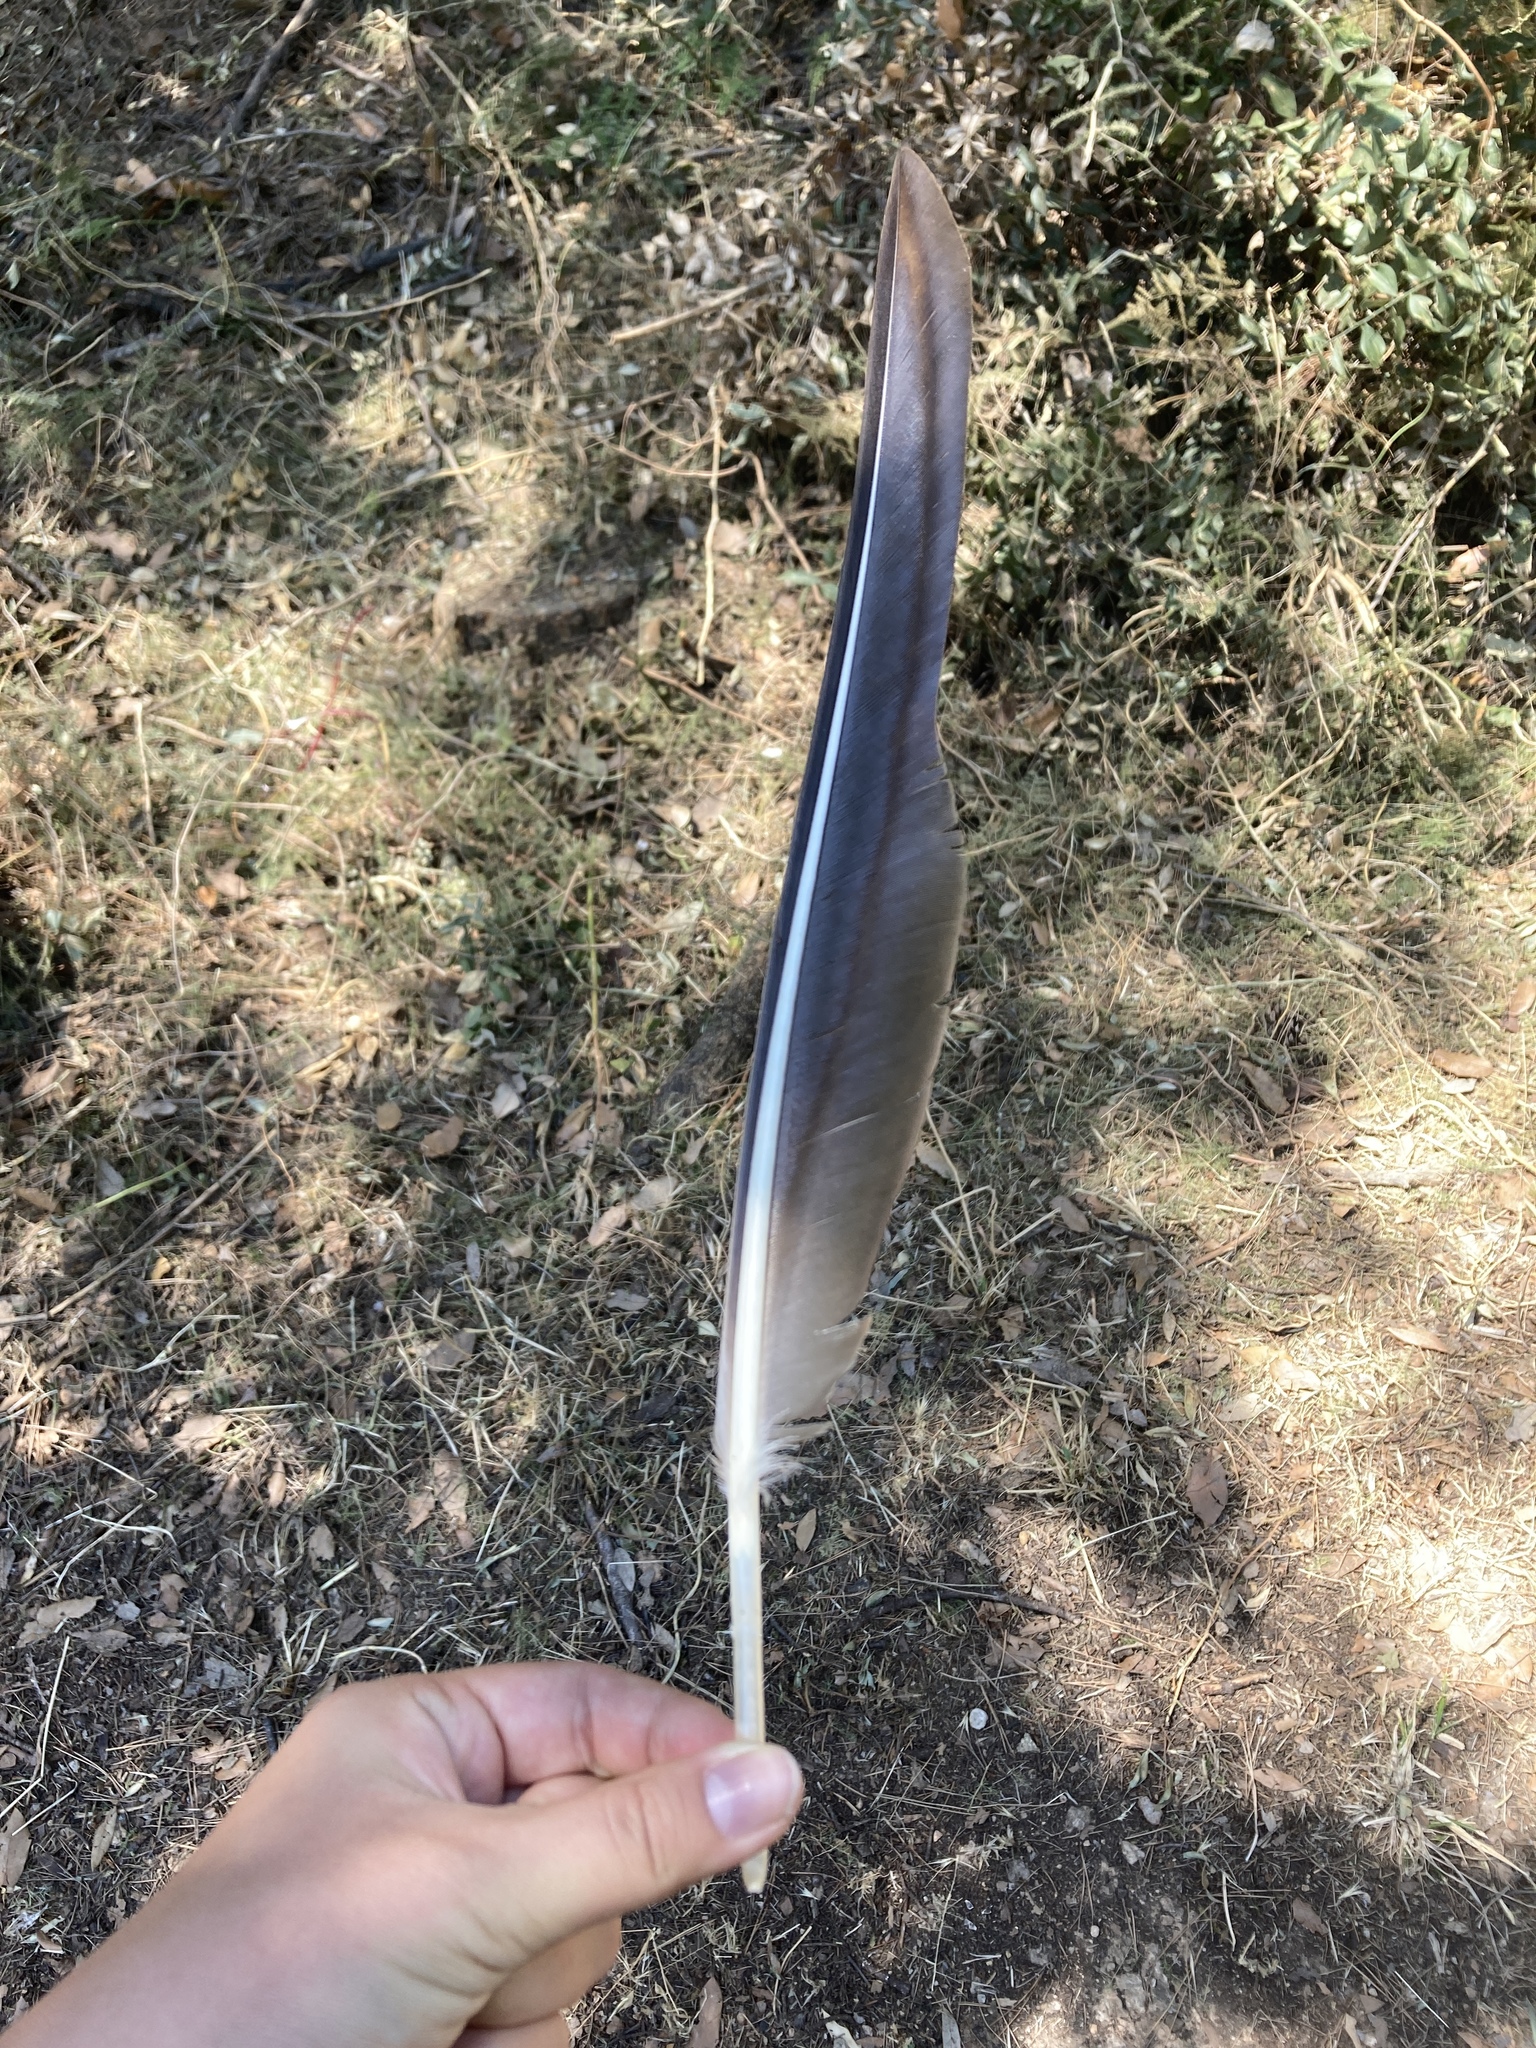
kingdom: Animalia
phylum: Chordata
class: Aves
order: Anseriformes
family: Anatidae
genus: Anser
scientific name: Anser anser
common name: Greylag goose
